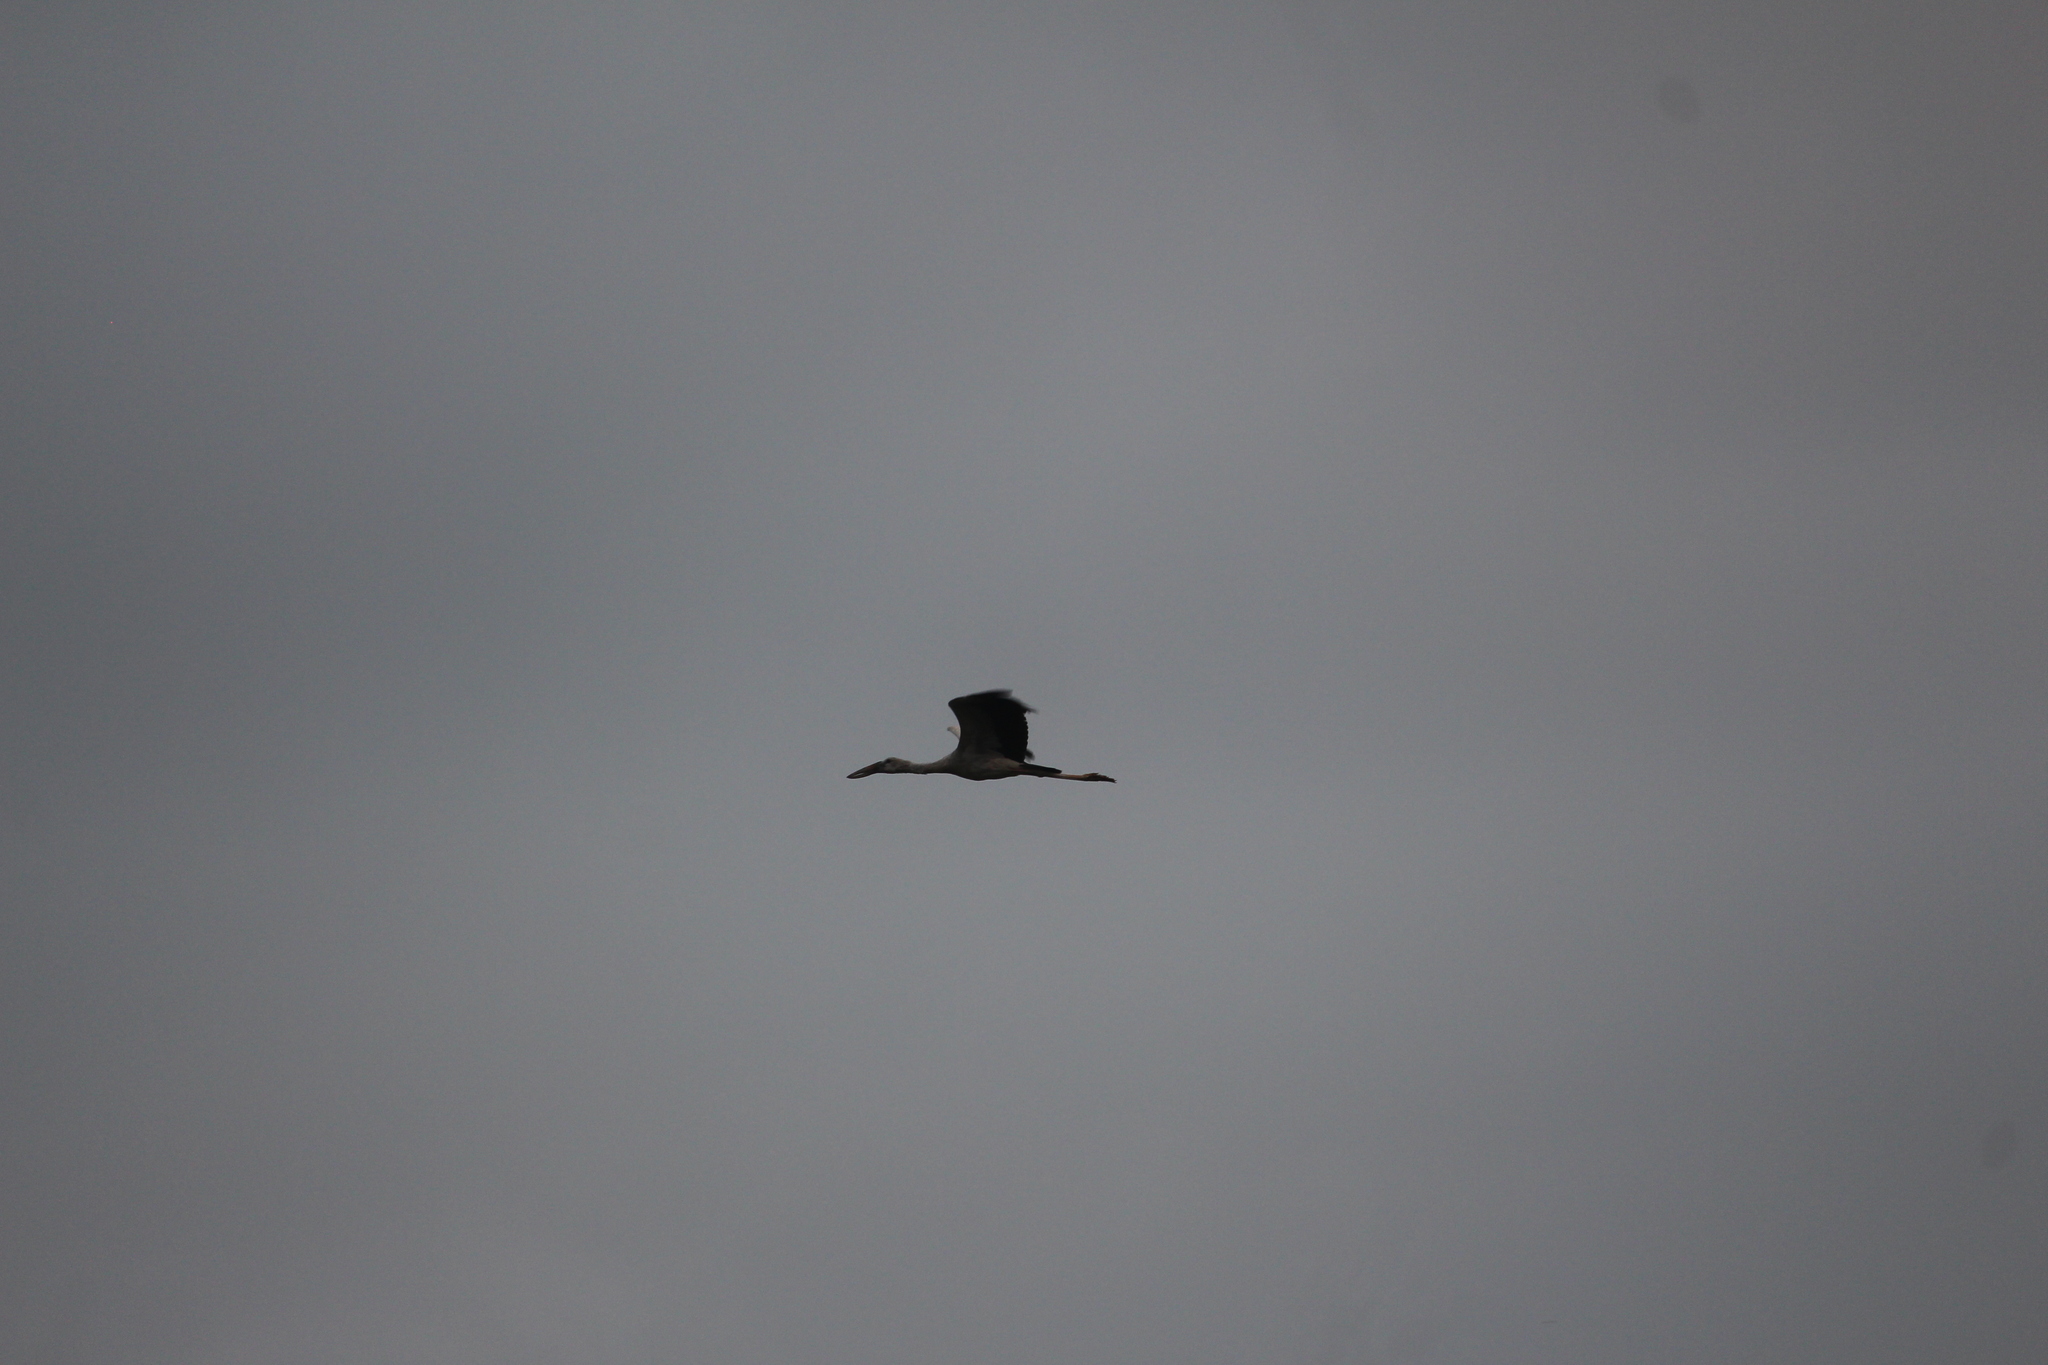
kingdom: Animalia
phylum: Chordata
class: Aves
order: Ciconiiformes
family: Ciconiidae
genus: Anastomus
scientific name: Anastomus oscitans
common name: Asian openbill
